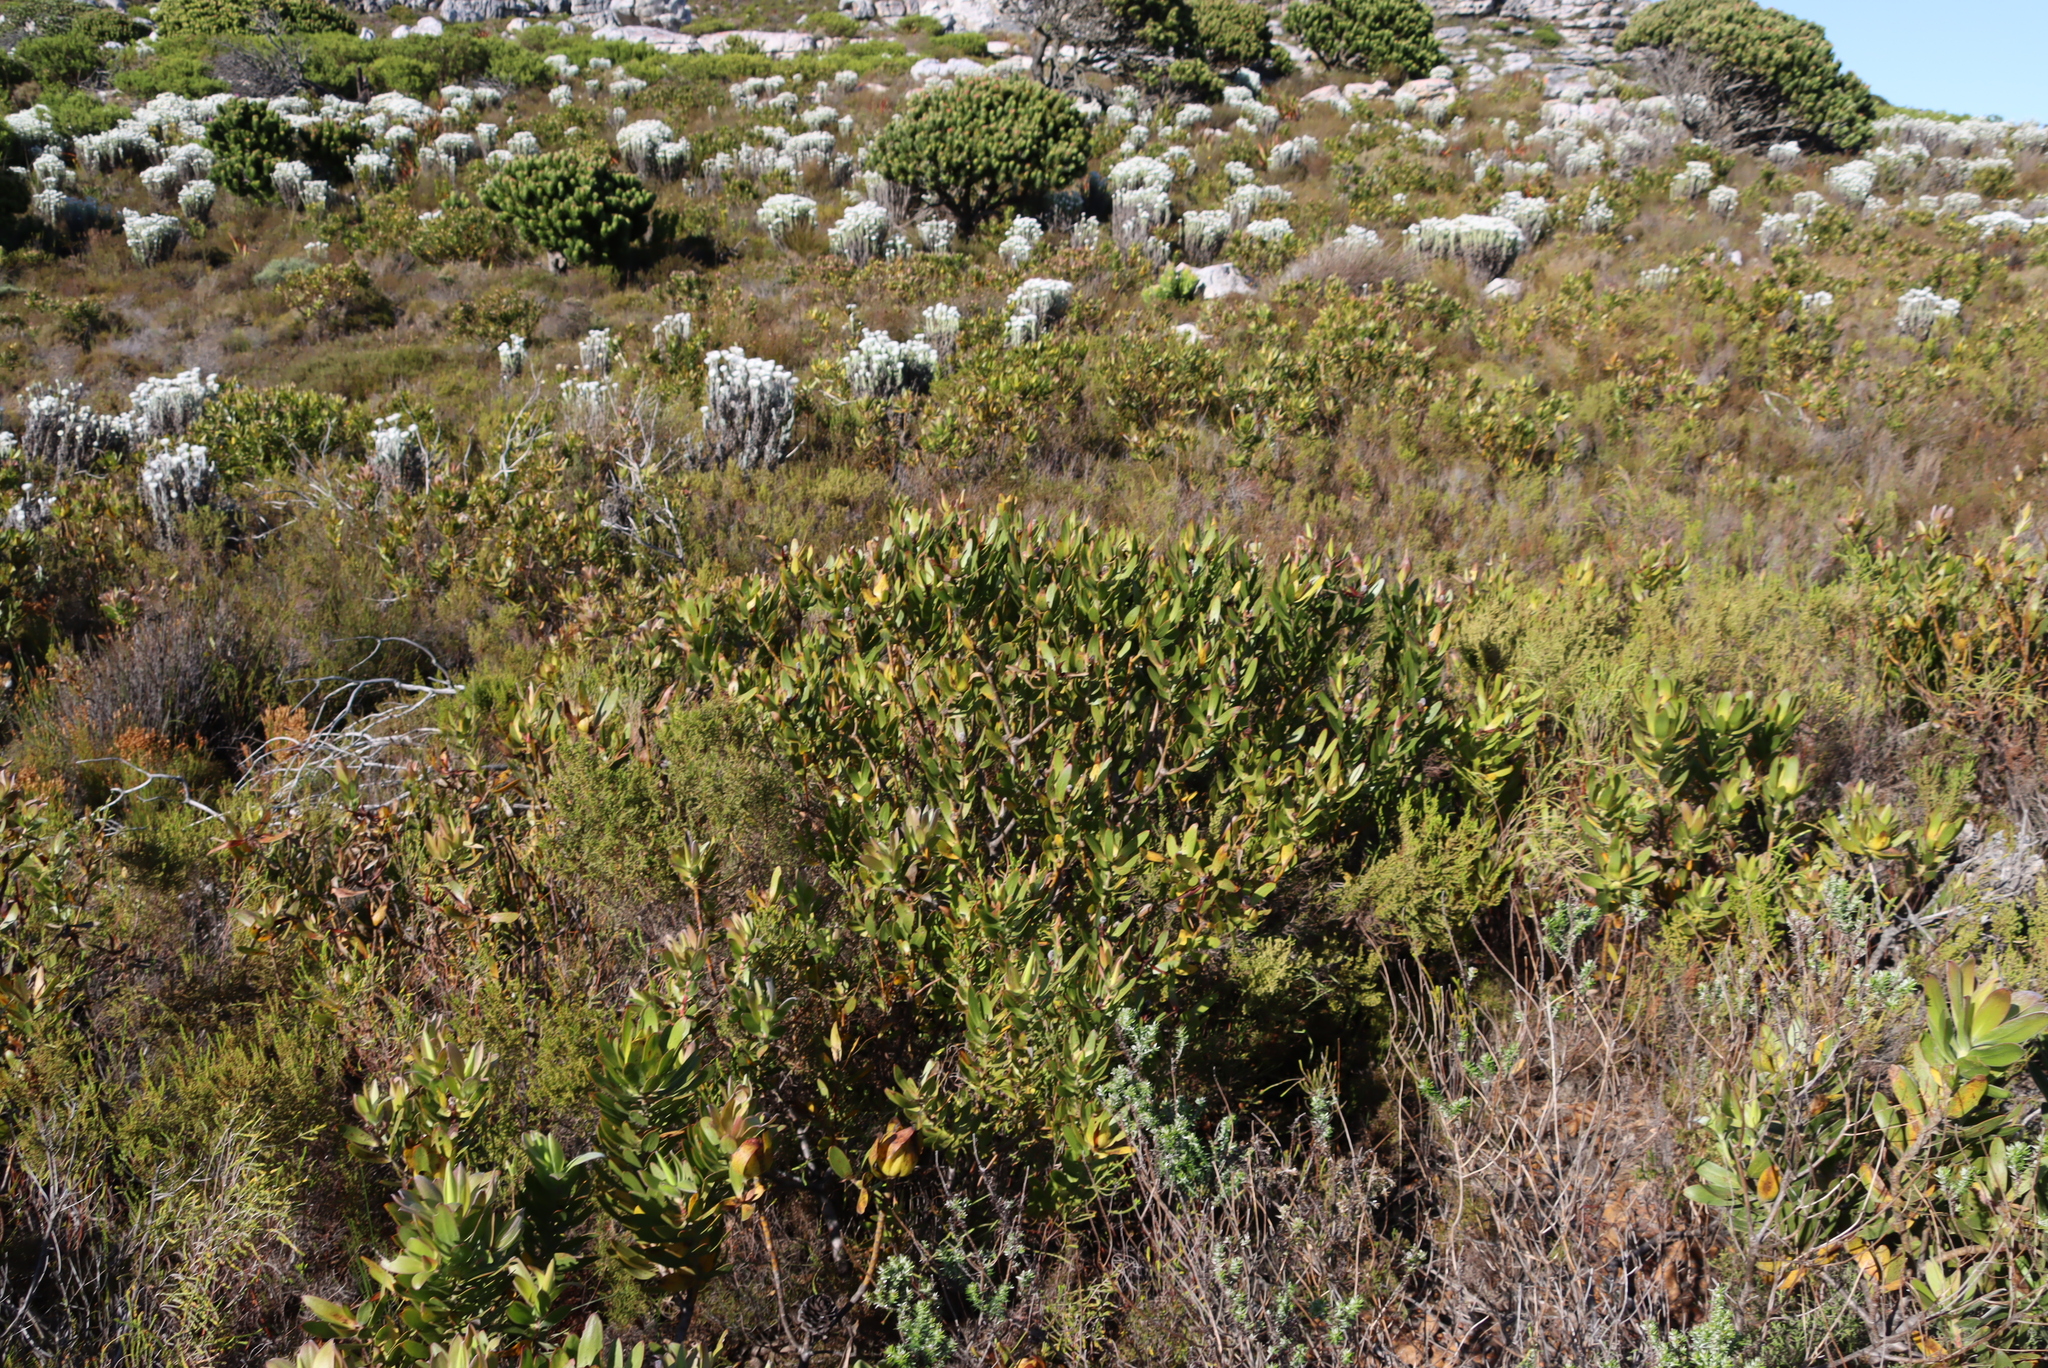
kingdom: Plantae
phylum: Tracheophyta
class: Magnoliopsida
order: Proteales
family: Proteaceae
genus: Leucadendron
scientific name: Leucadendron laureolum
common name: Golden sunshinebush
